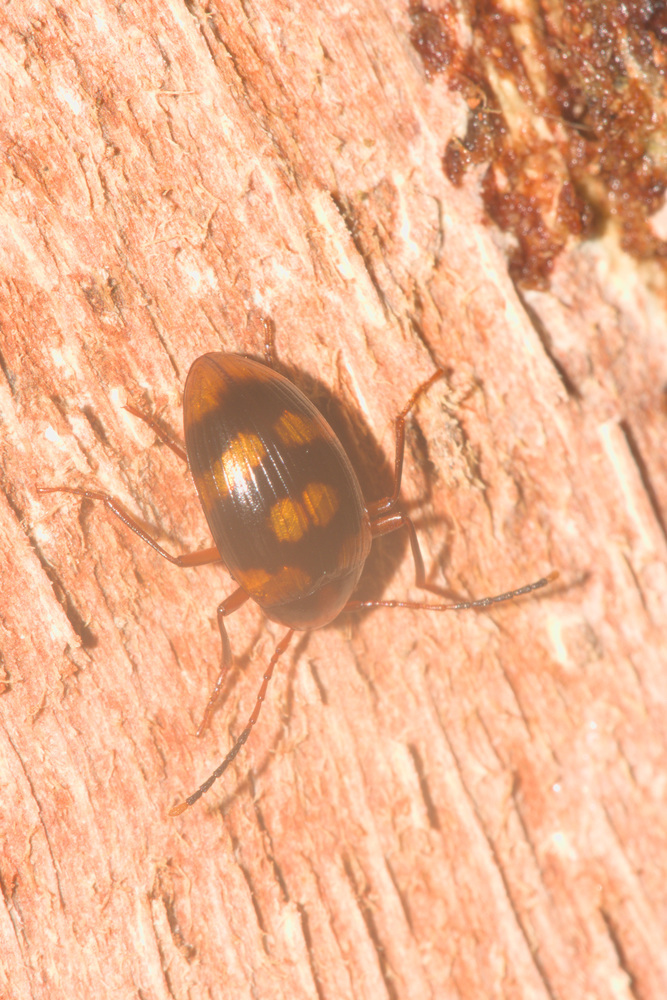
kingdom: Animalia
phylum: Arthropoda
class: Insecta
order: Coleoptera
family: Tenebrionidae
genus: Amarygmus
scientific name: Amarygmus
